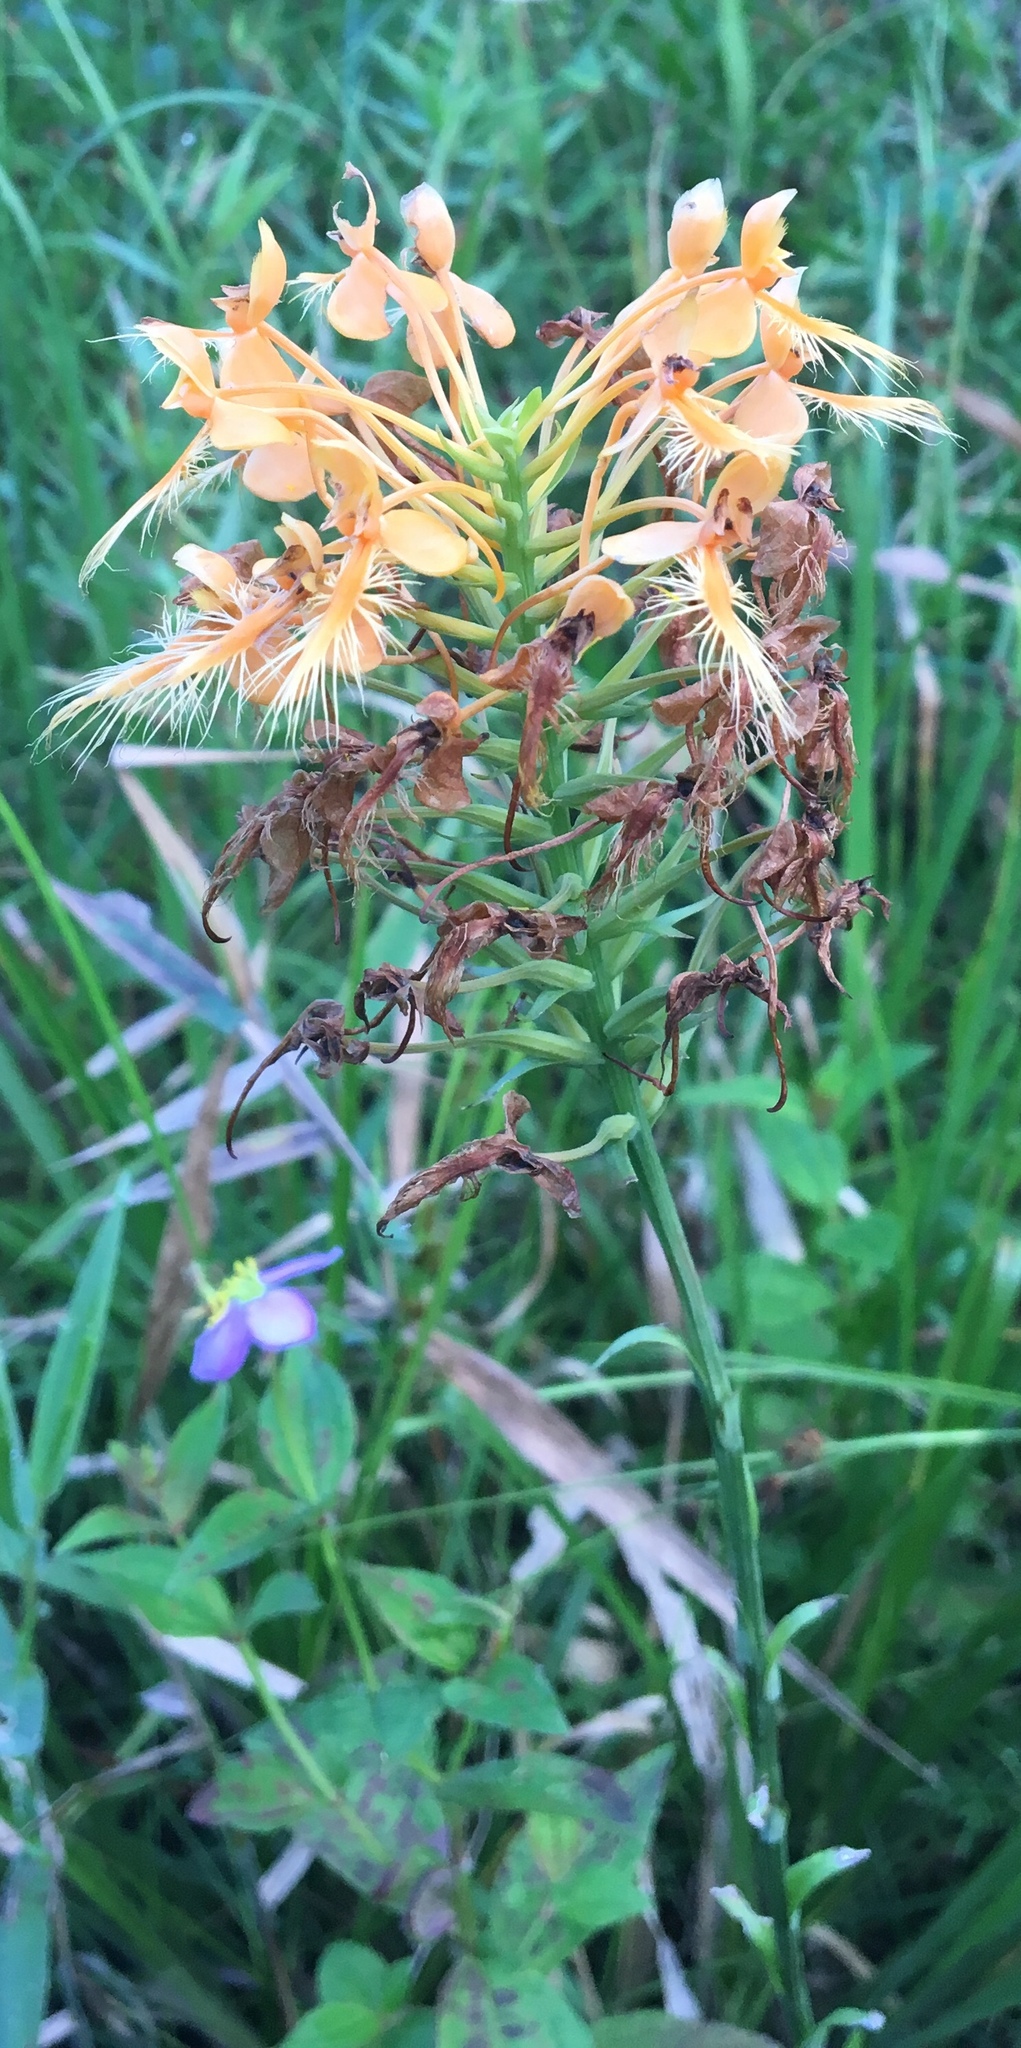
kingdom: Plantae
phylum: Tracheophyta
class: Liliopsida
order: Asparagales
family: Orchidaceae
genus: Platanthera
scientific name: Platanthera ciliaris
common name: Yellow fringed orchid
